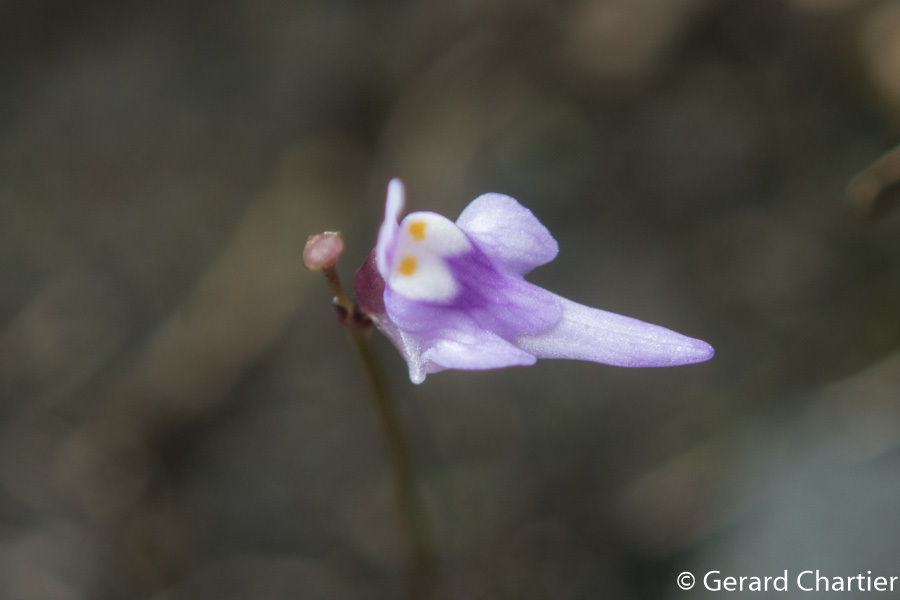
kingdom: Plantae
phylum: Tracheophyta
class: Magnoliopsida
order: Lamiales
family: Lentibulariaceae
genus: Utricularia
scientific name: Utricularia geoffrayi
